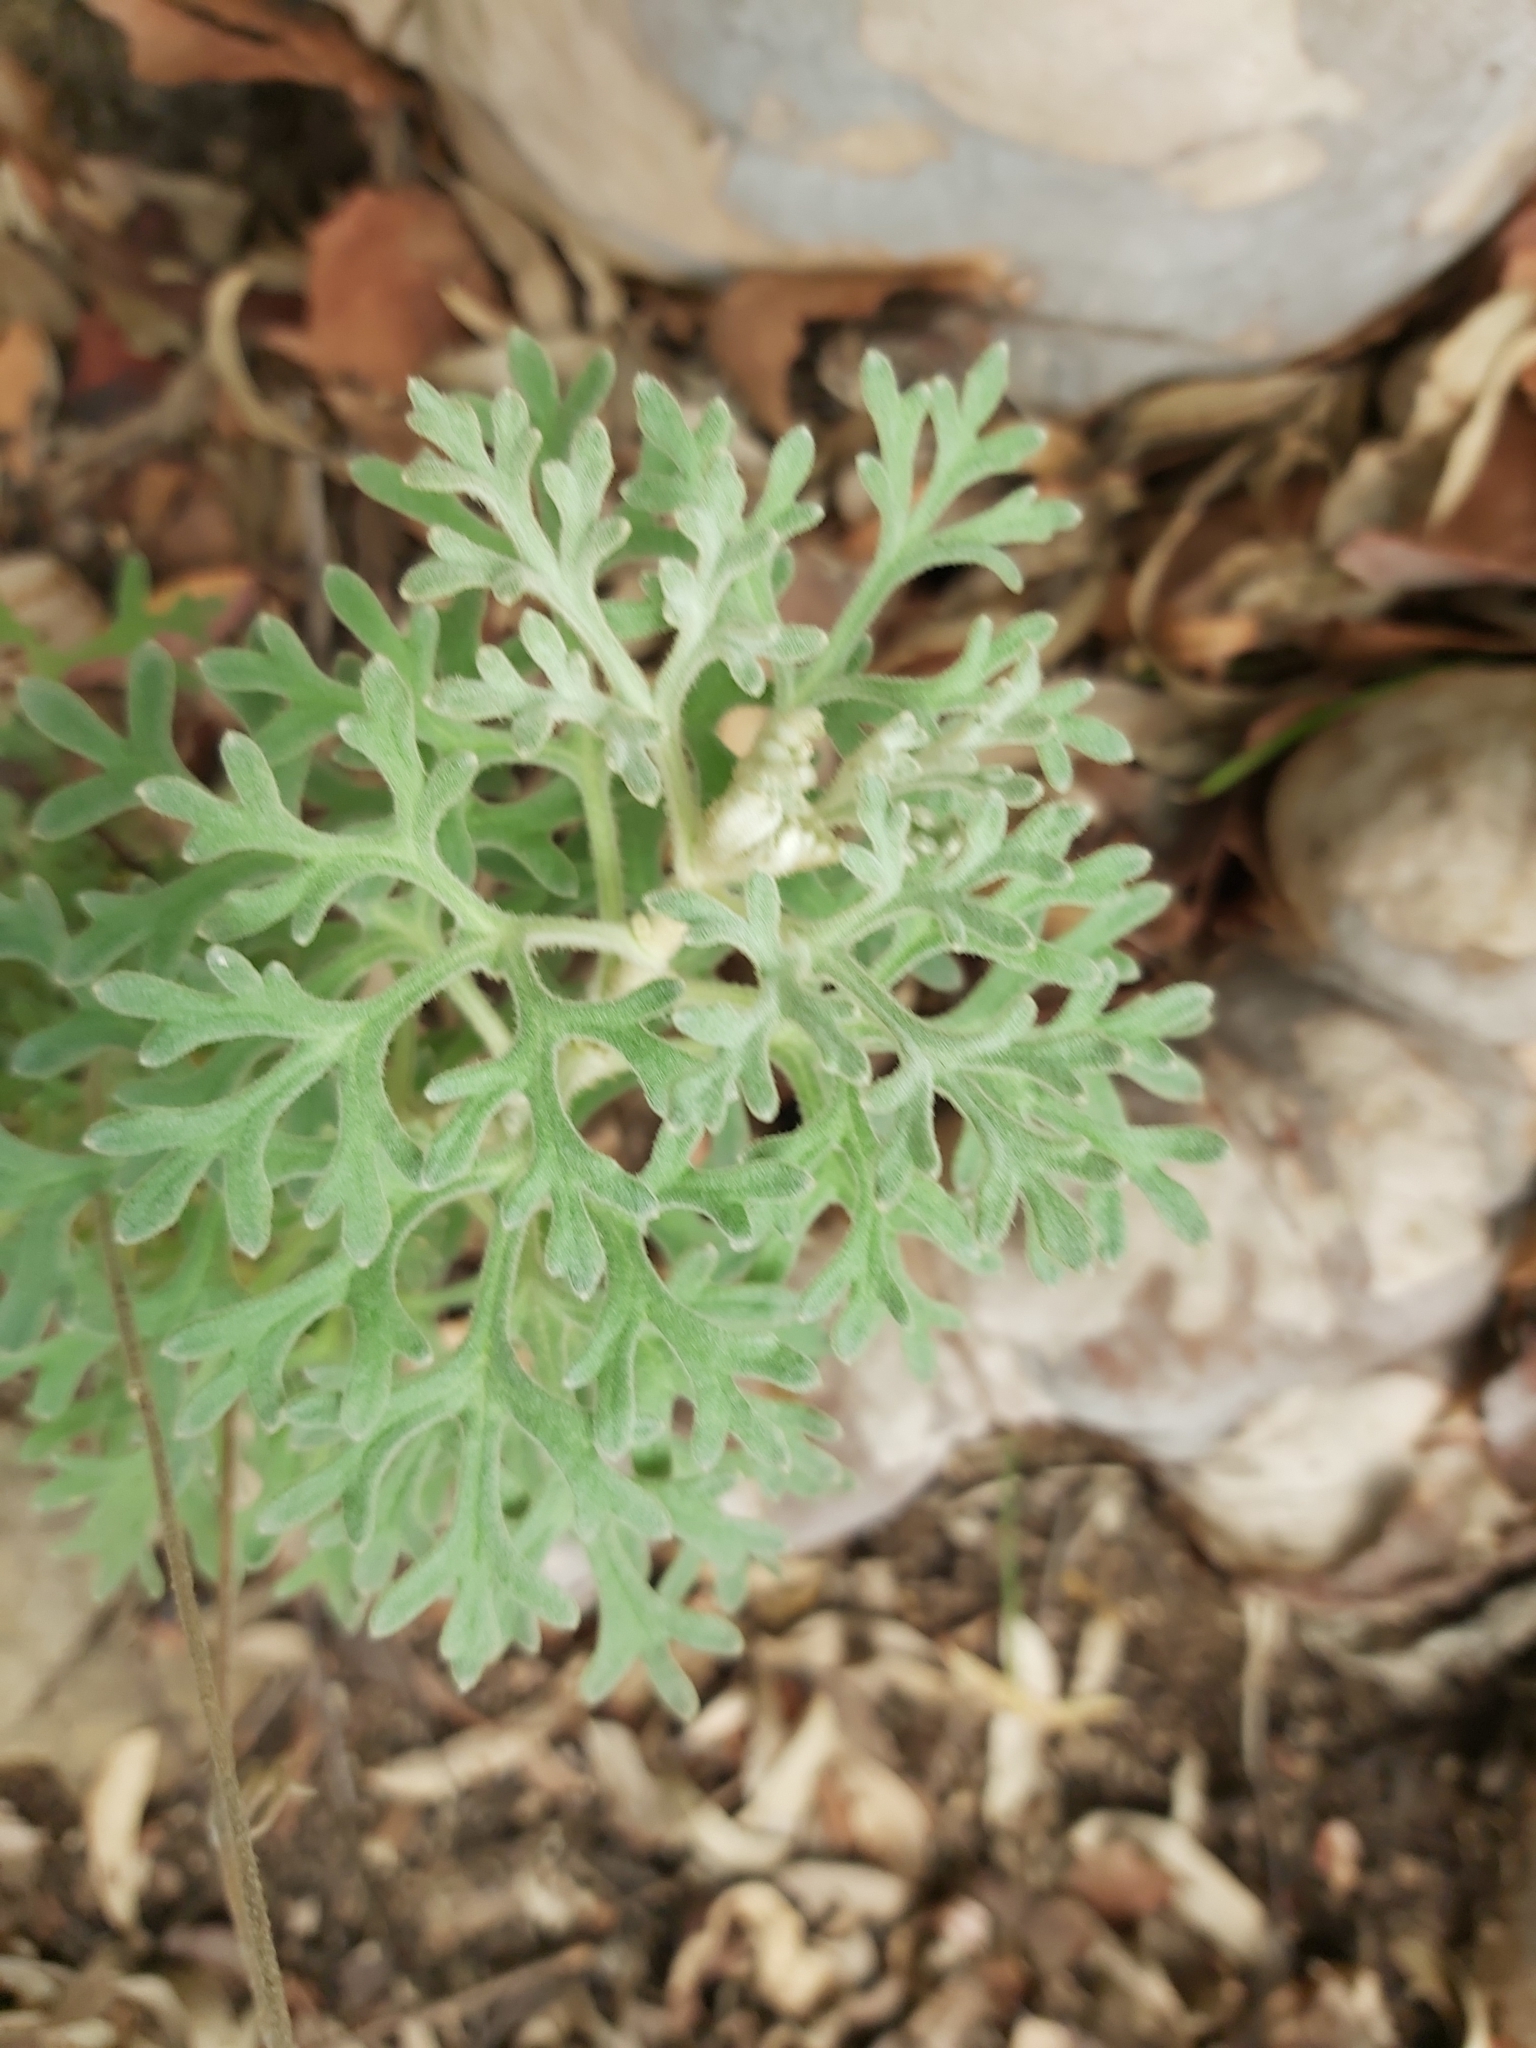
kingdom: Plantae
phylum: Tracheophyta
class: Magnoliopsida
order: Apiales
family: Apiaceae
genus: Actinotus
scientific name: Actinotus helianthi
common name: Flannel-flower
